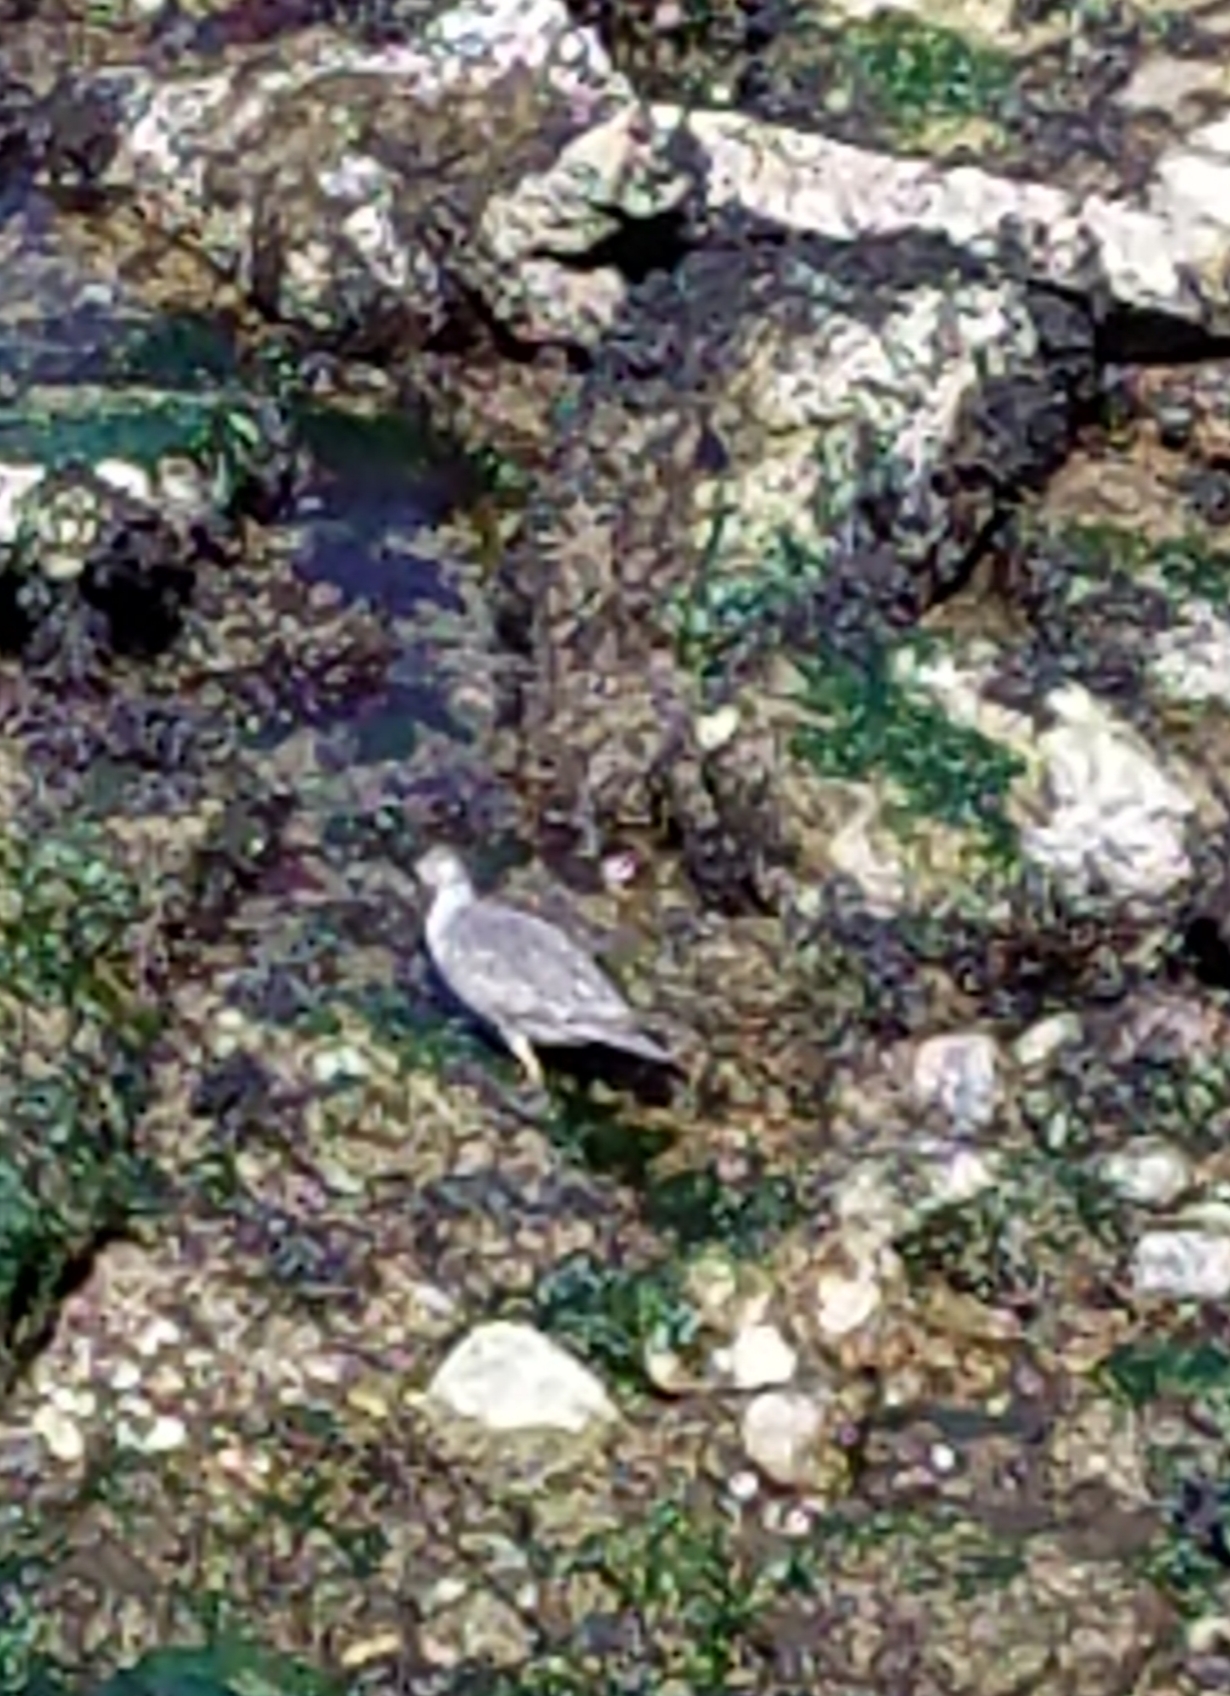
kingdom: Animalia
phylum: Chordata
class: Aves
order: Charadriiformes
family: Scolopacidae
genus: Calidris
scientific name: Calidris virgata
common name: Surfbird
